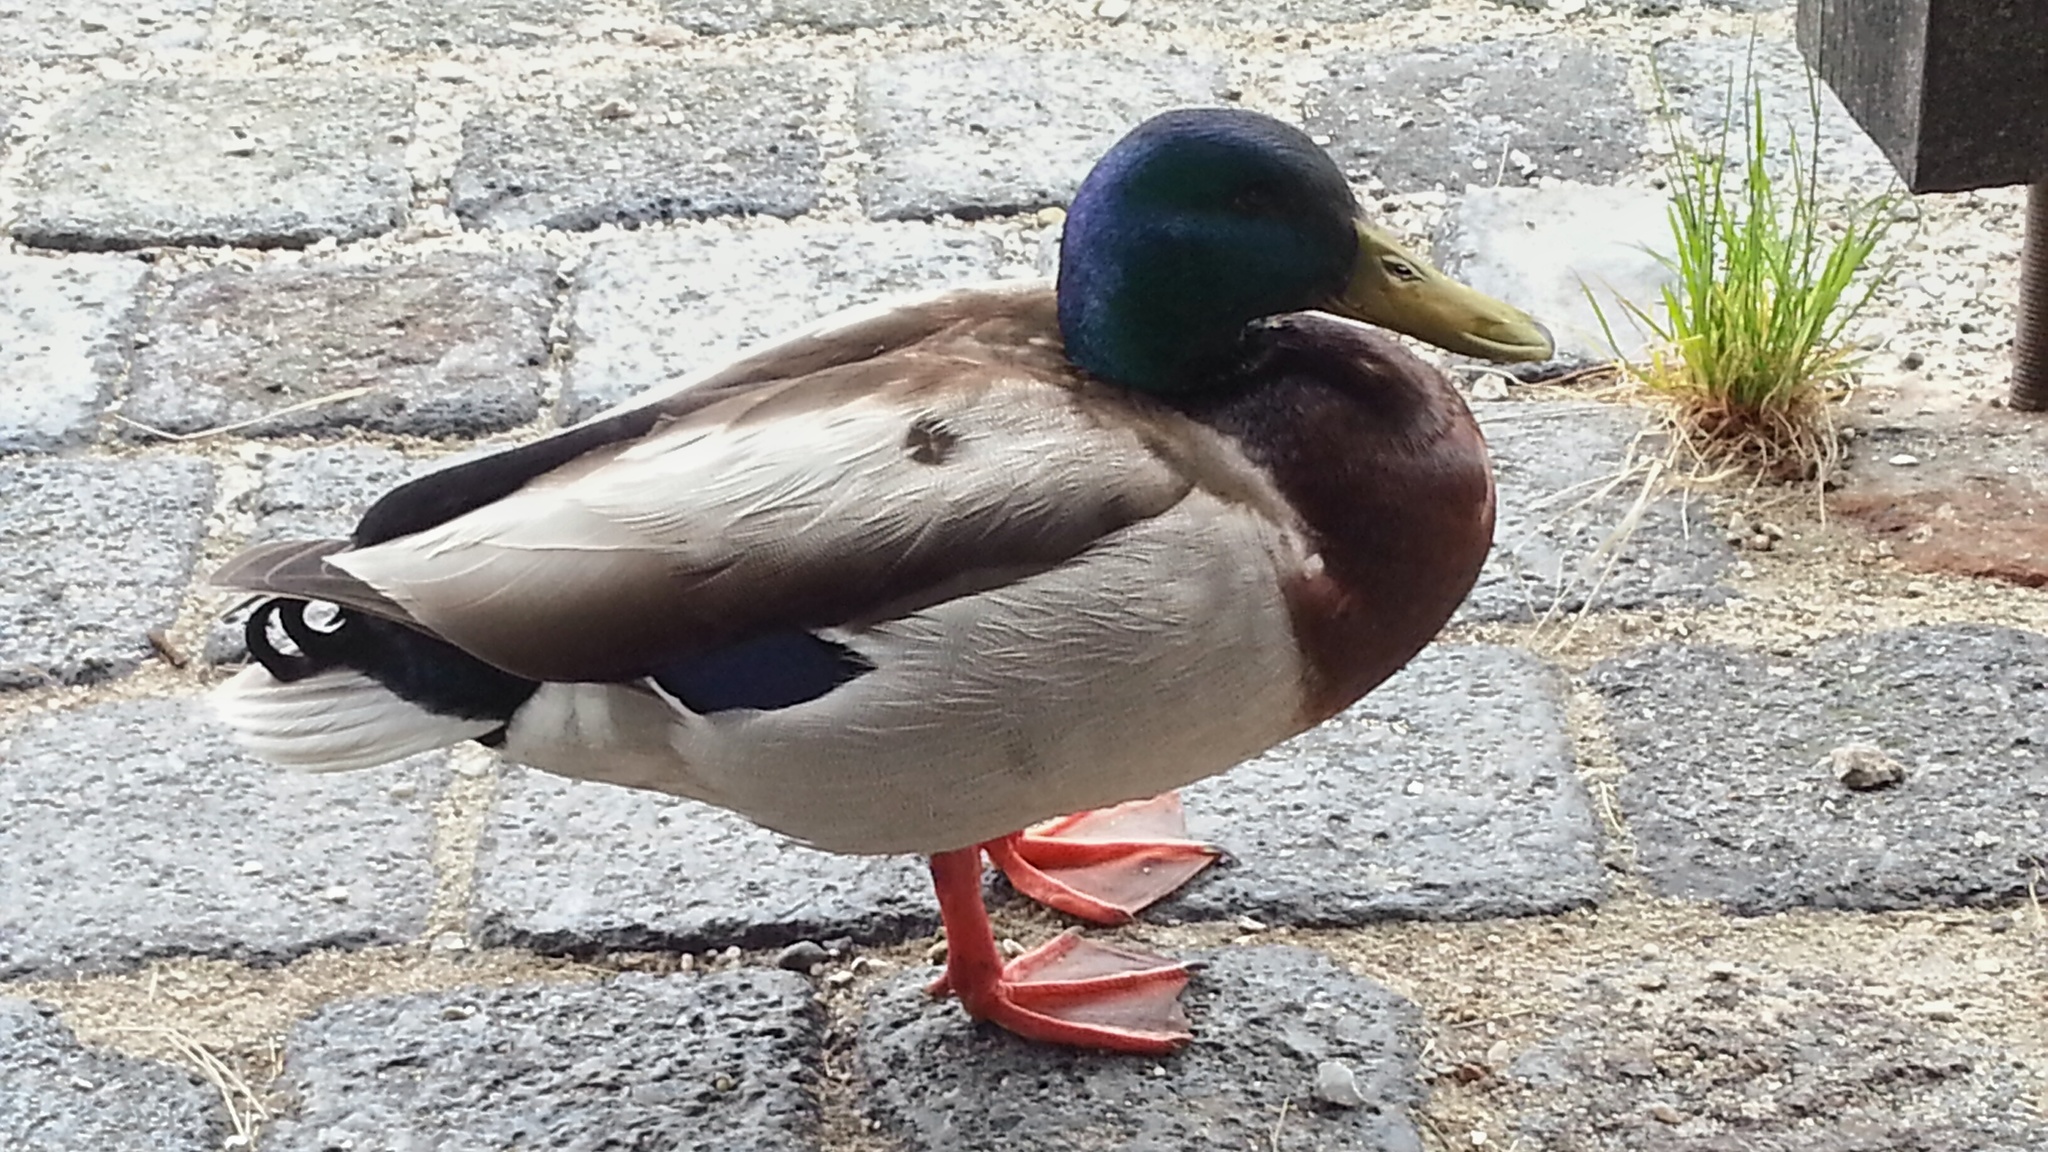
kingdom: Animalia
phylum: Chordata
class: Aves
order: Anseriformes
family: Anatidae
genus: Anas
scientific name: Anas platyrhynchos
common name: Mallard
